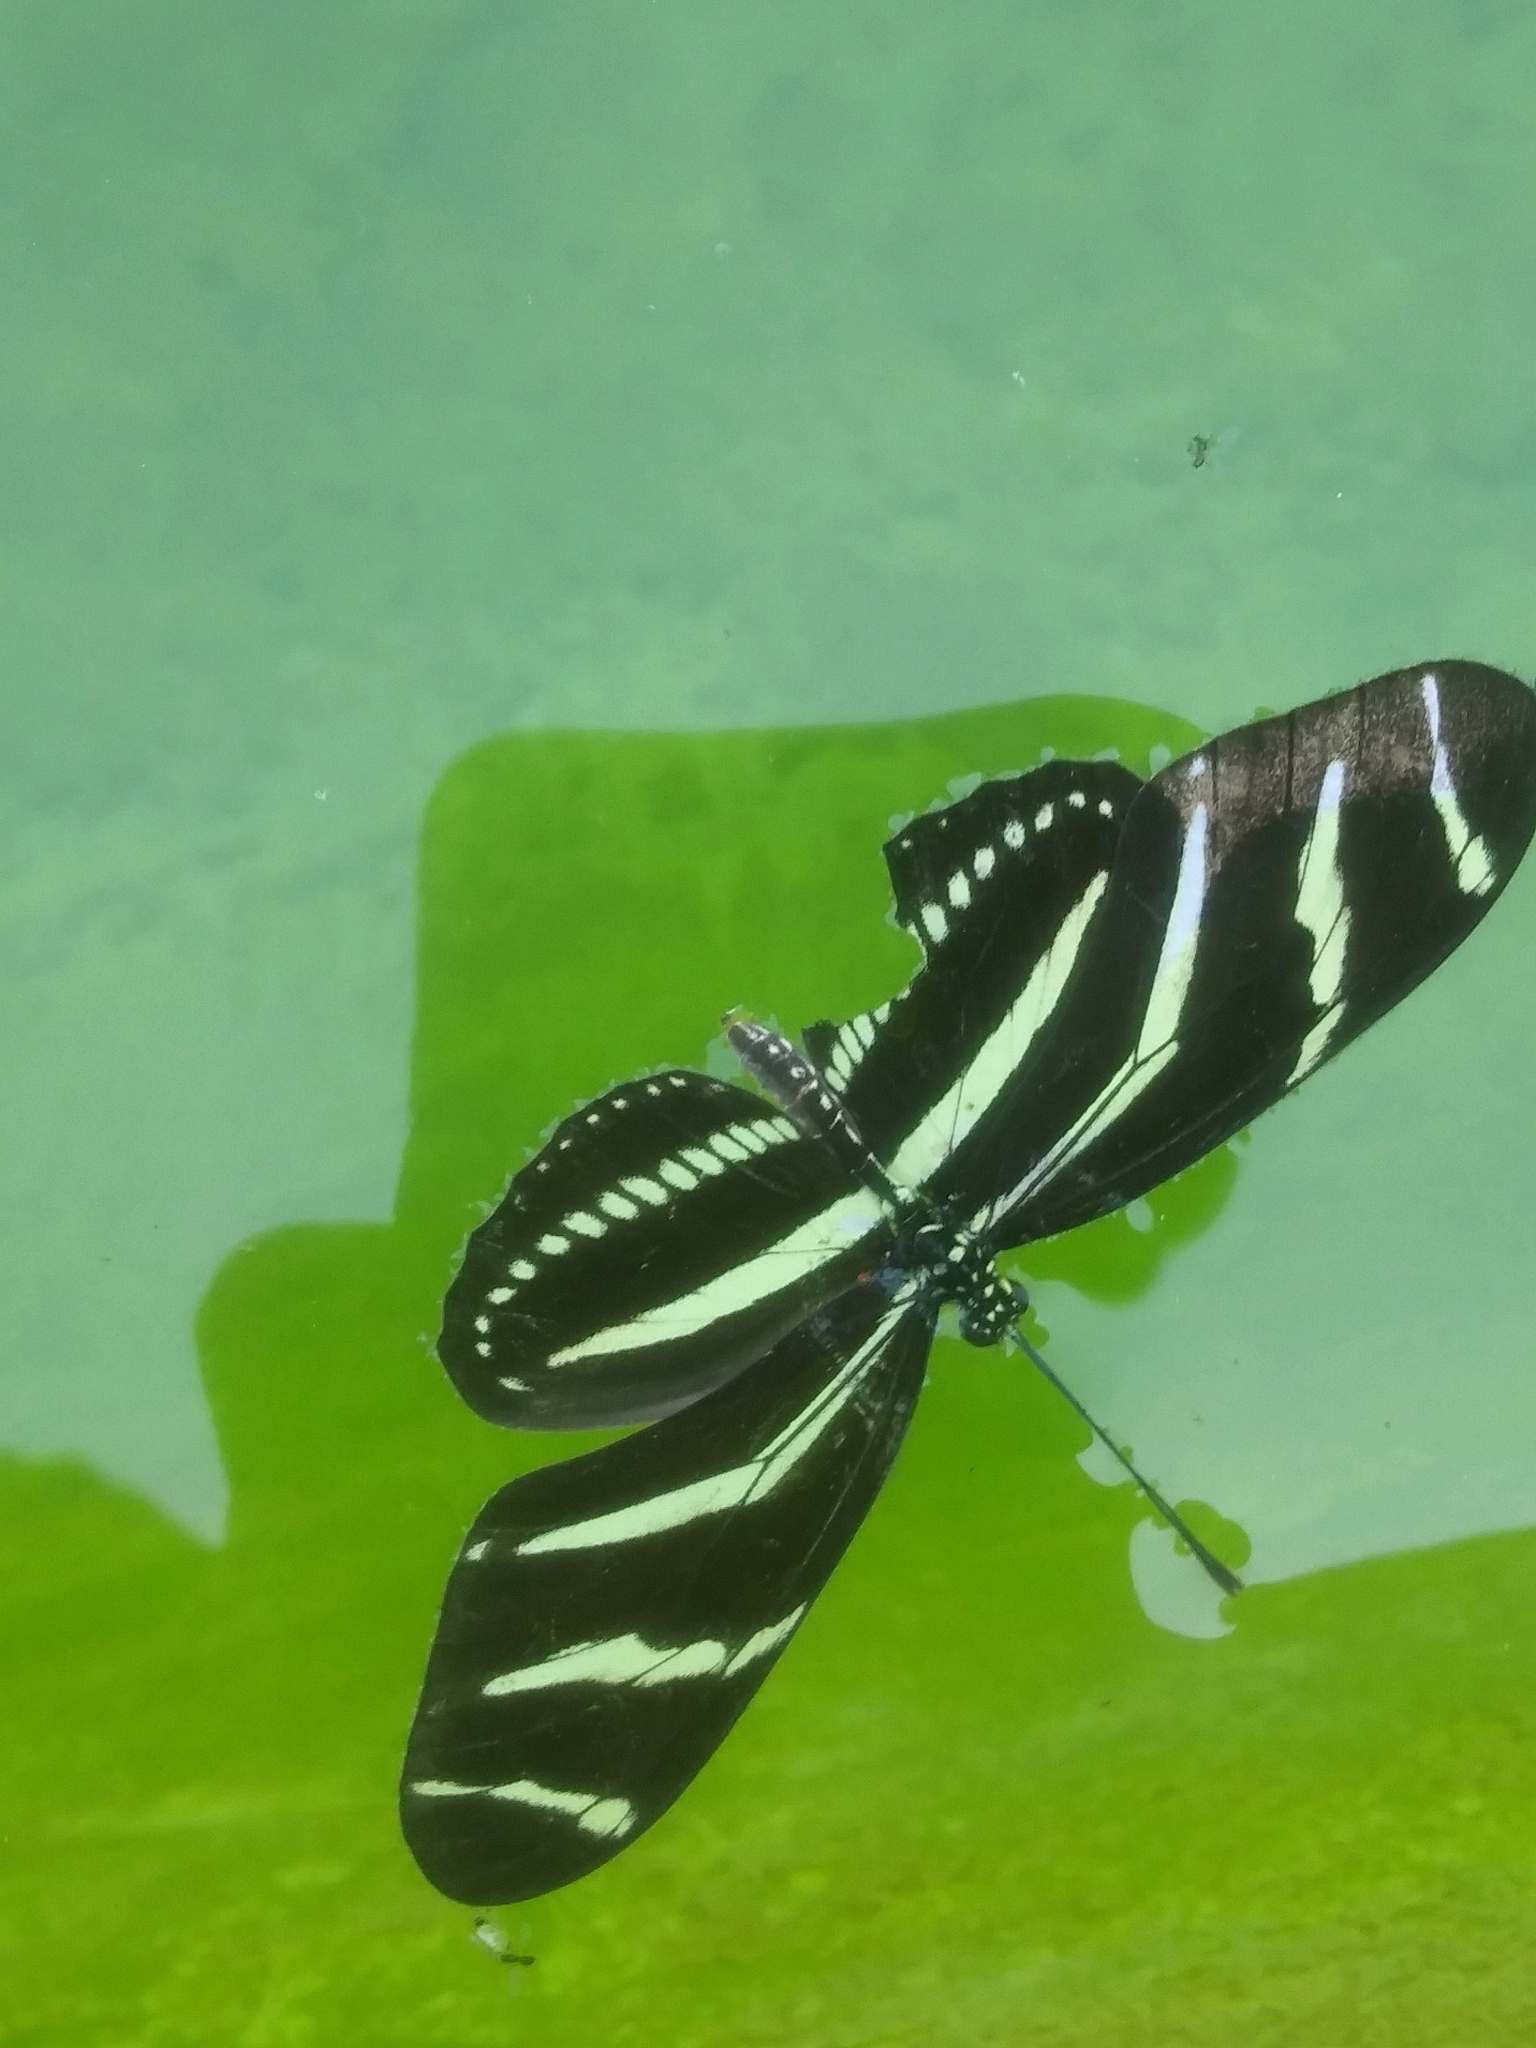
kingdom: Animalia
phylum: Arthropoda
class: Insecta
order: Lepidoptera
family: Nymphalidae
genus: Heliconius
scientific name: Heliconius charithonia
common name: Zebra long wing
